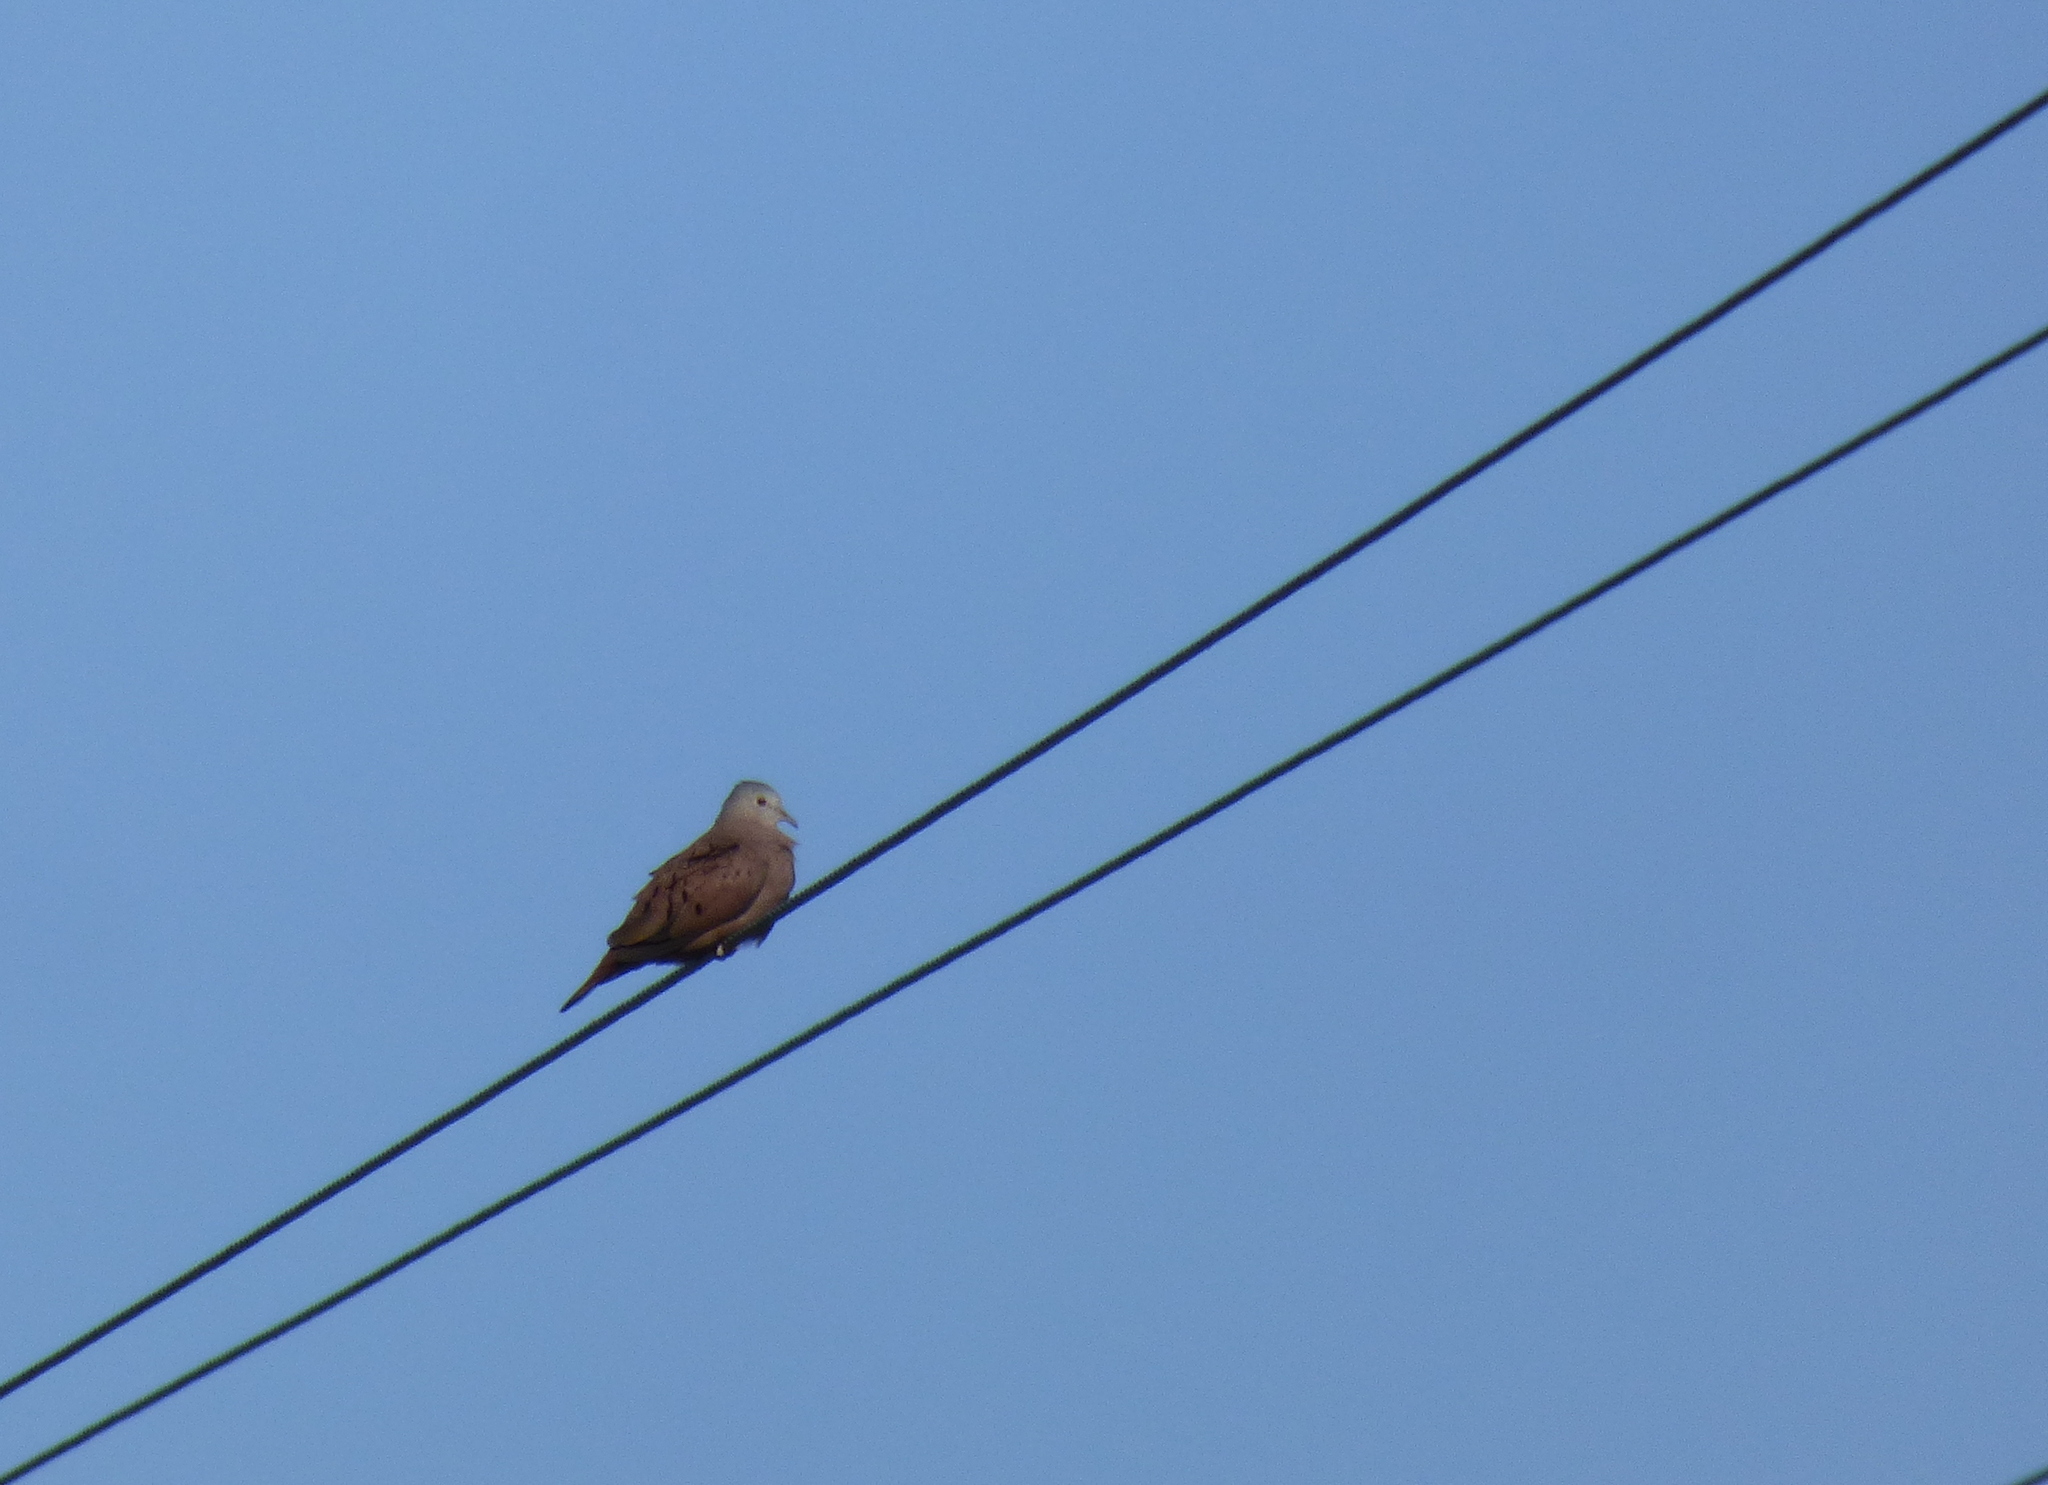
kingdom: Animalia
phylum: Chordata
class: Aves
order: Columbiformes
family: Columbidae
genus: Columbina
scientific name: Columbina talpacoti
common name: Ruddy ground dove
